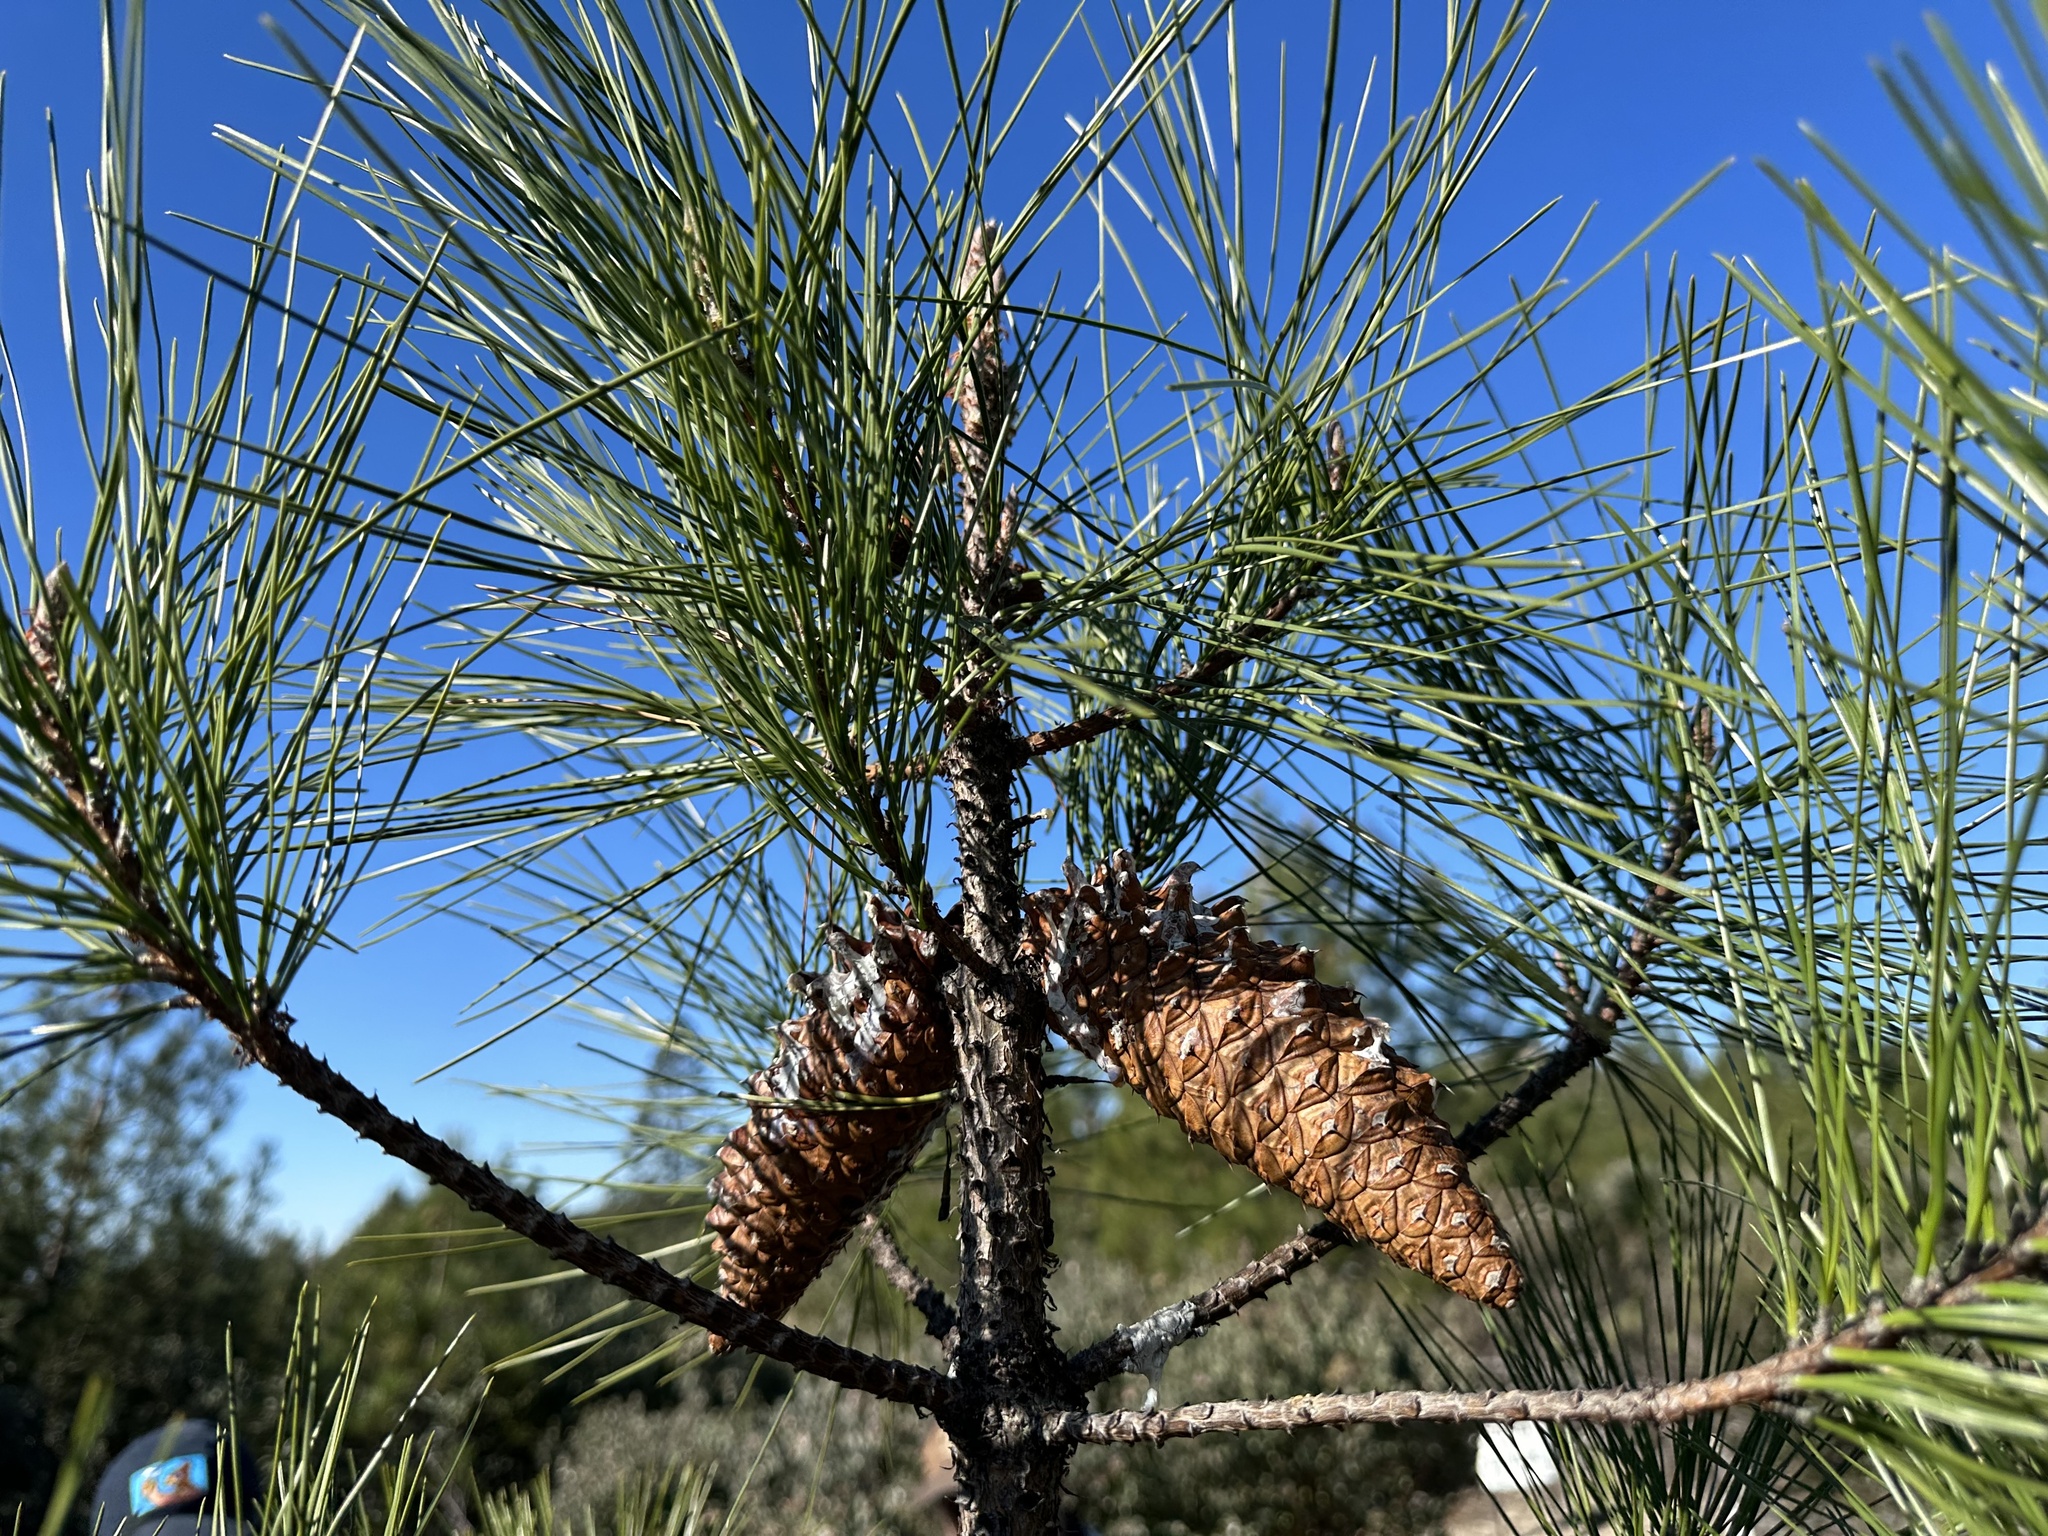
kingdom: Plantae
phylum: Tracheophyta
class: Pinopsida
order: Pinales
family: Pinaceae
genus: Pinus
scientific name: Pinus attenuata
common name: Knobcone pine
